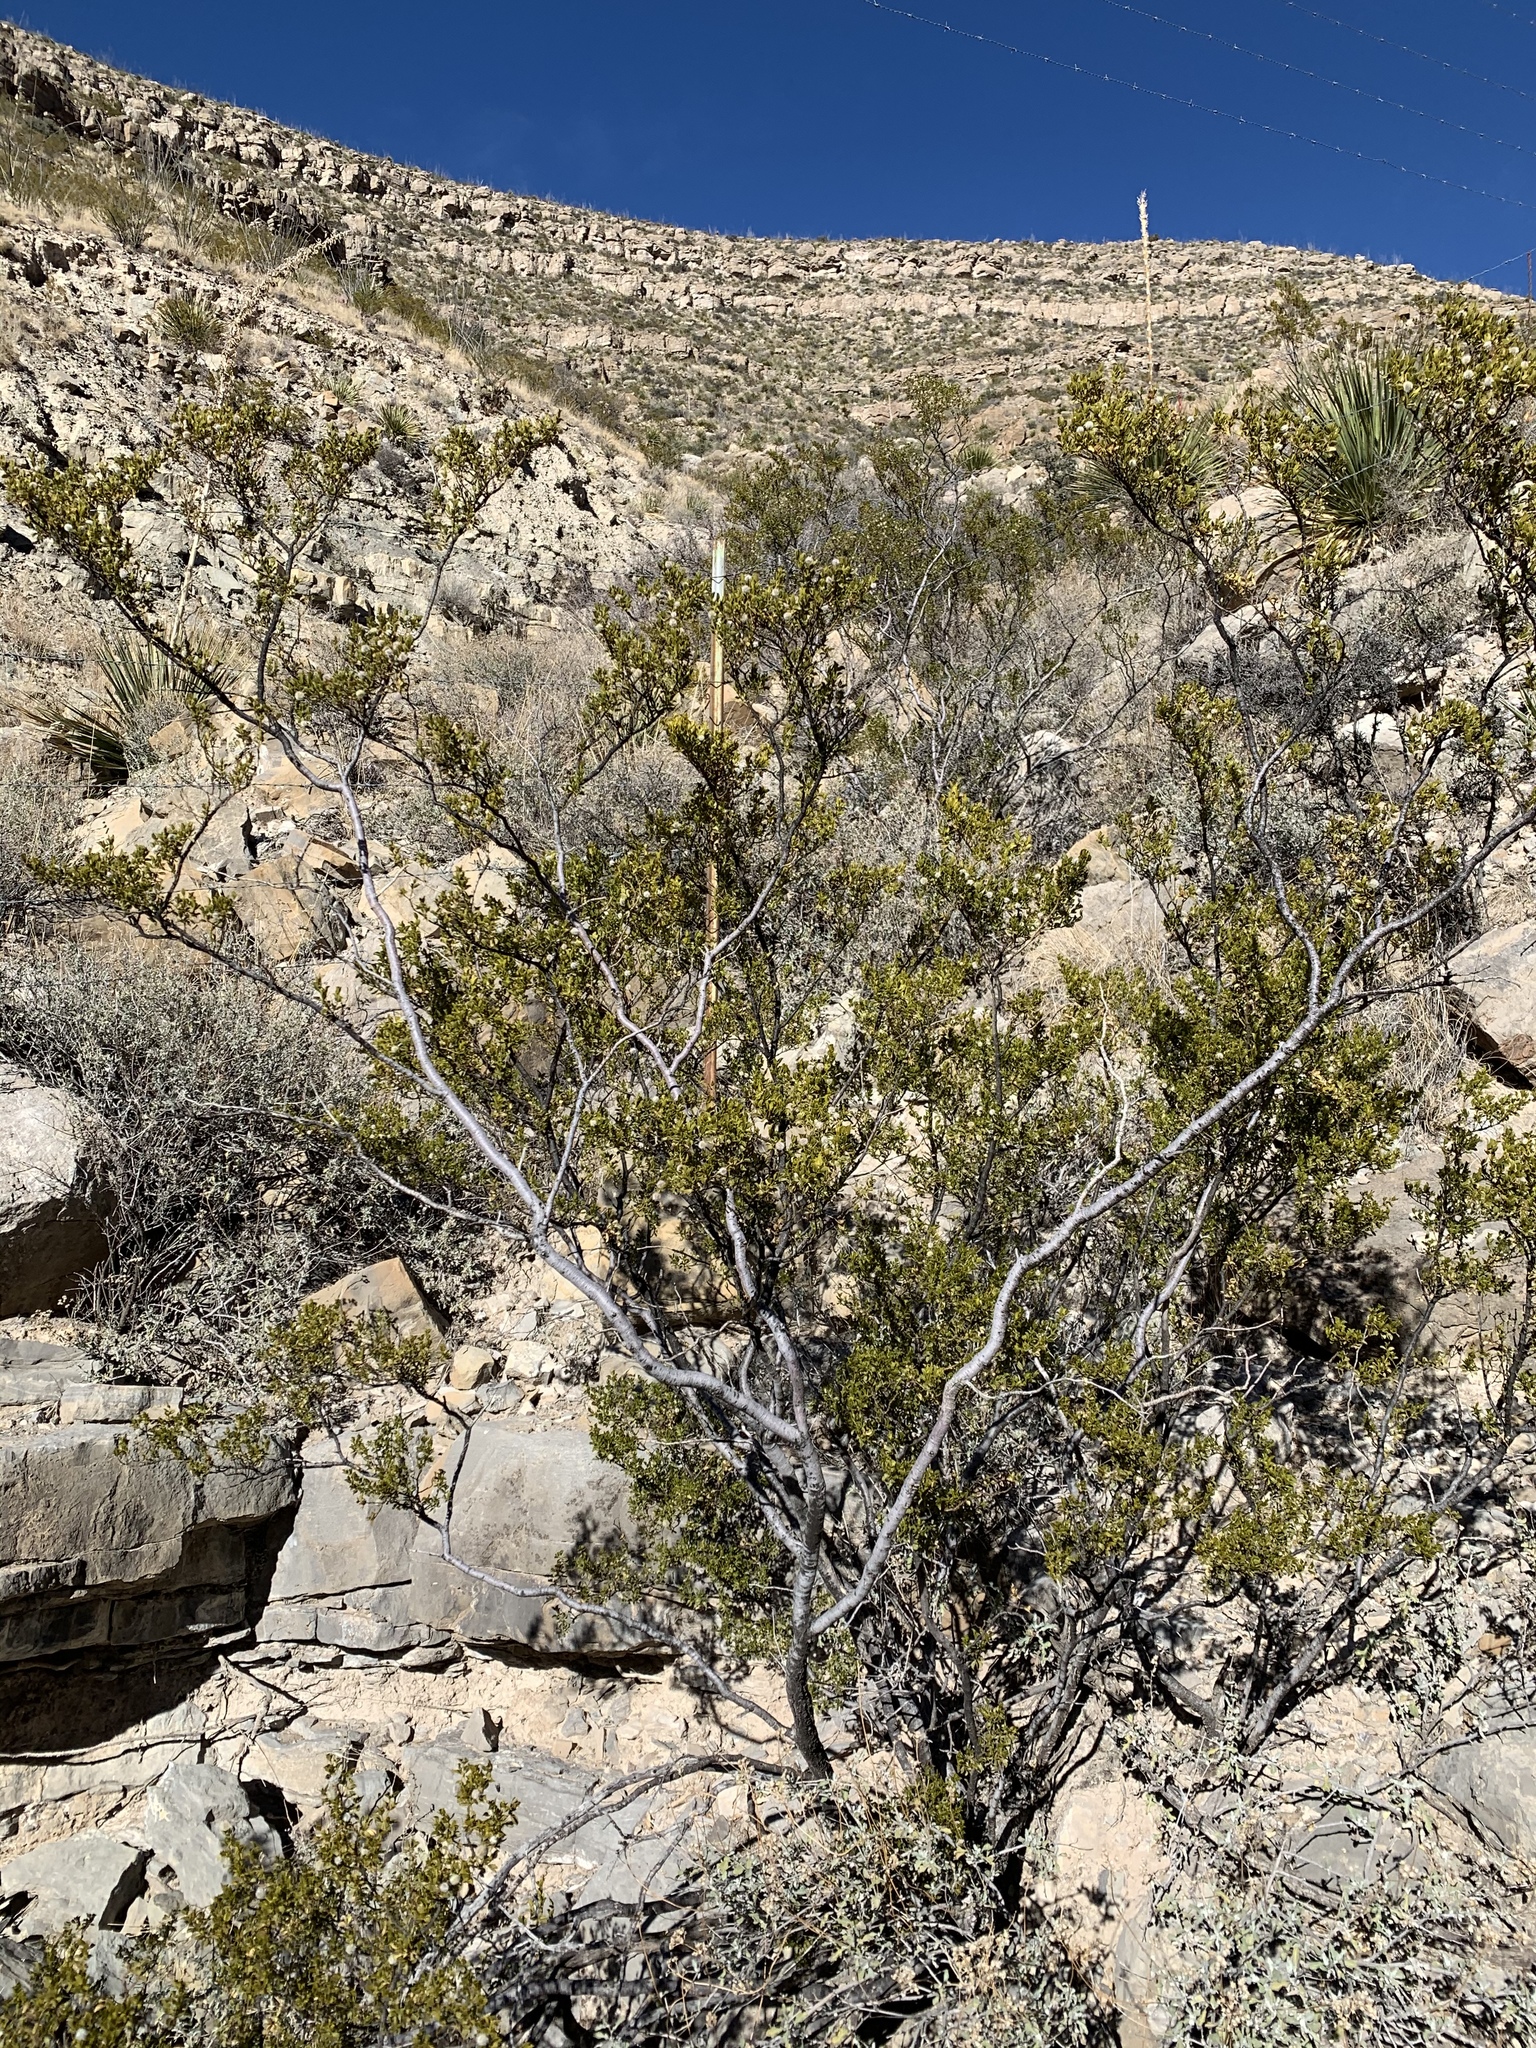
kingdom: Plantae
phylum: Tracheophyta
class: Magnoliopsida
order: Zygophyllales
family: Zygophyllaceae
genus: Larrea
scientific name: Larrea tridentata
